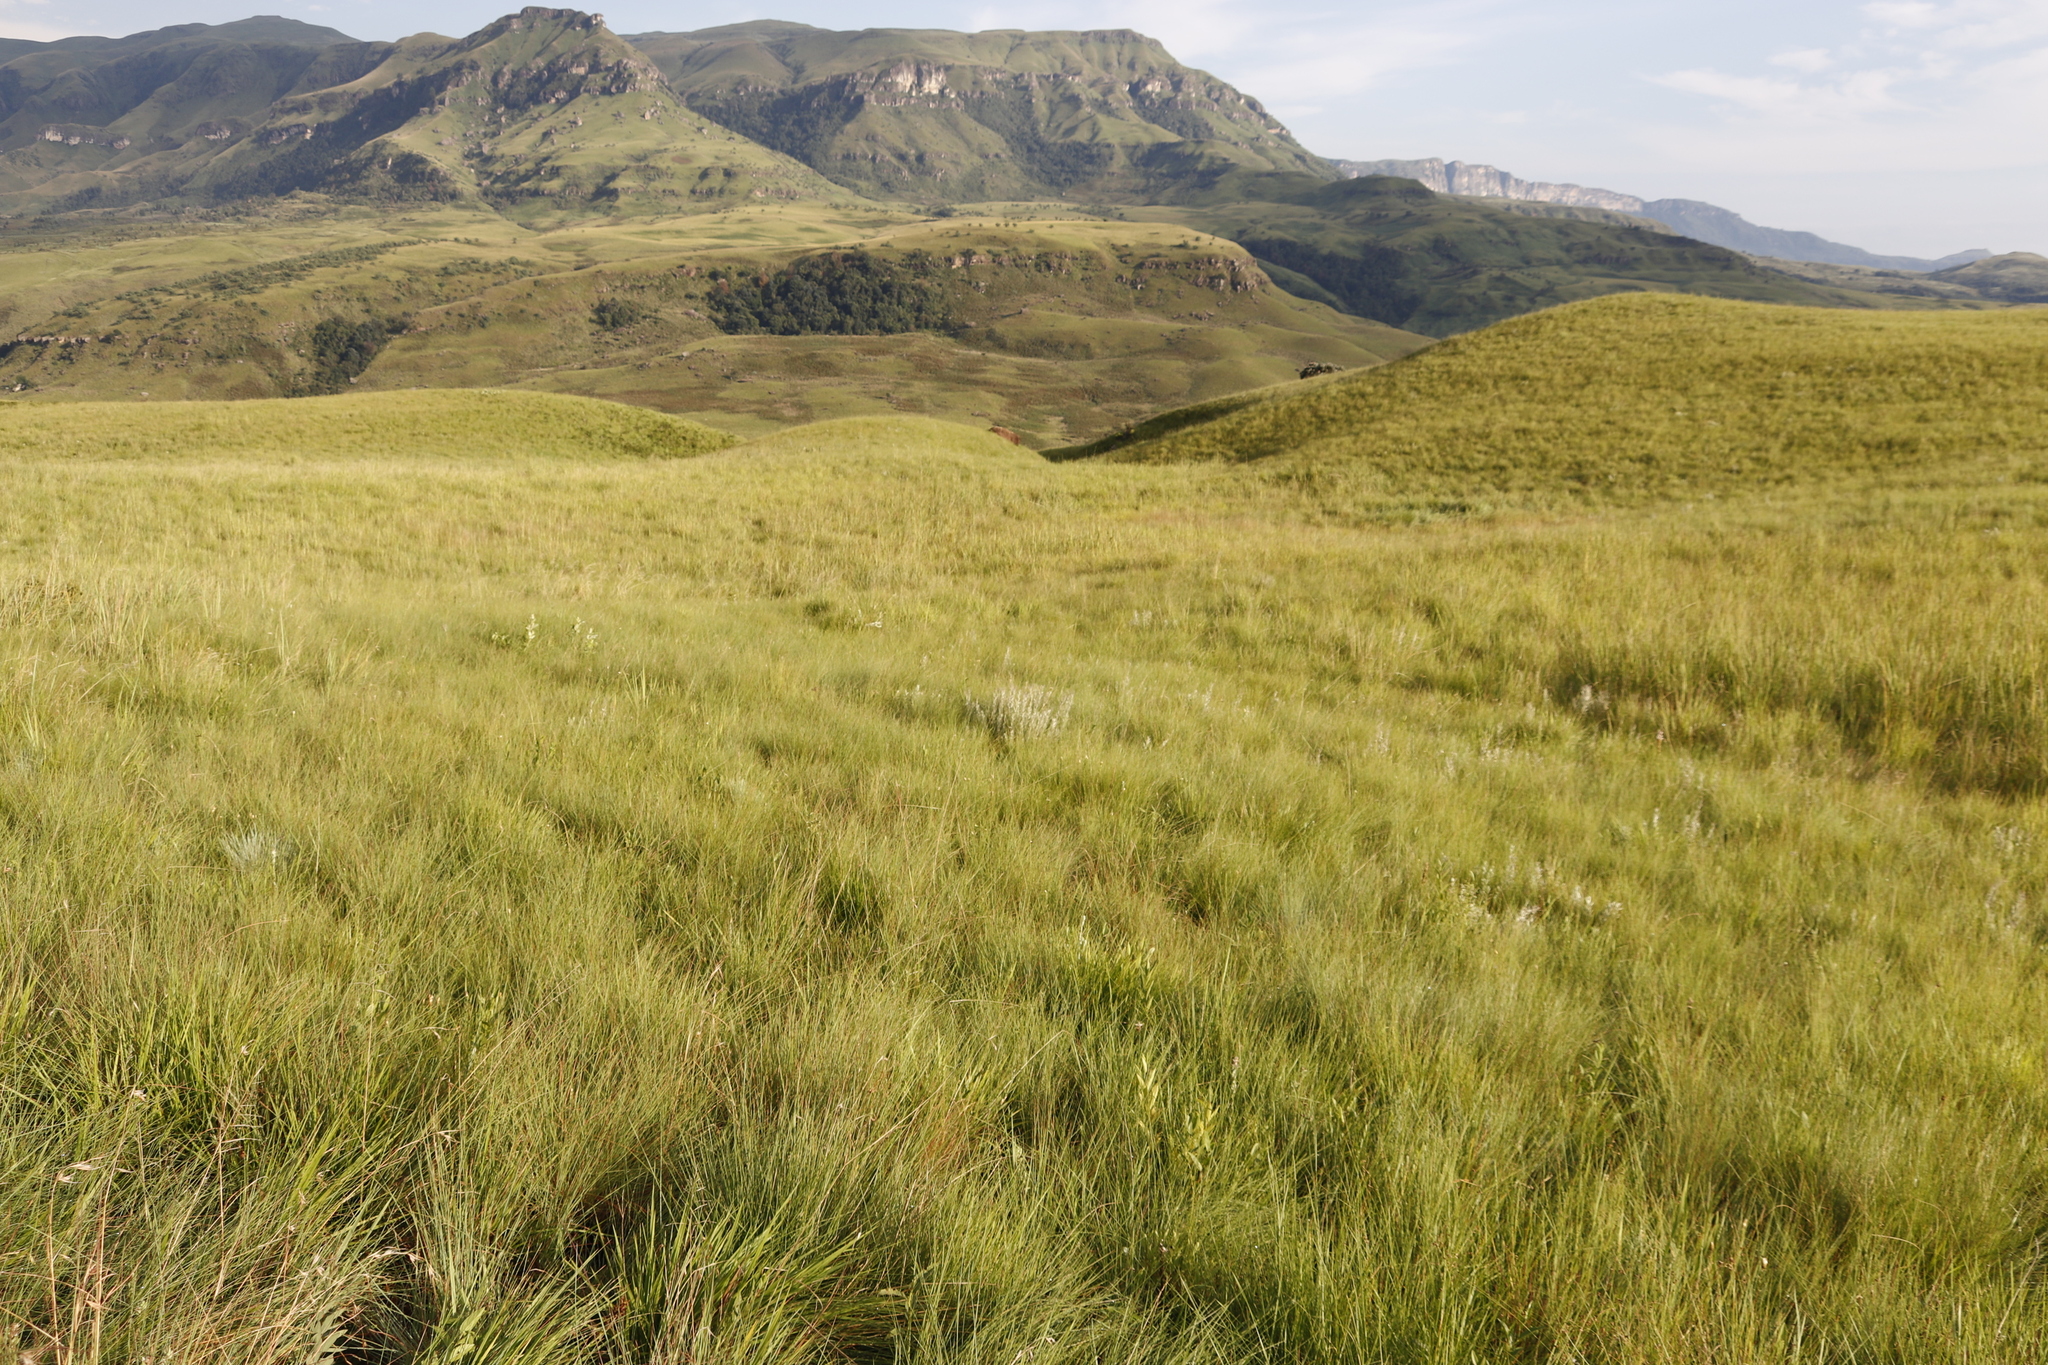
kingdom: Plantae
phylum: Tracheophyta
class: Magnoliopsida
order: Lamiales
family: Orobanchaceae
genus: Sopubia
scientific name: Sopubia cana
